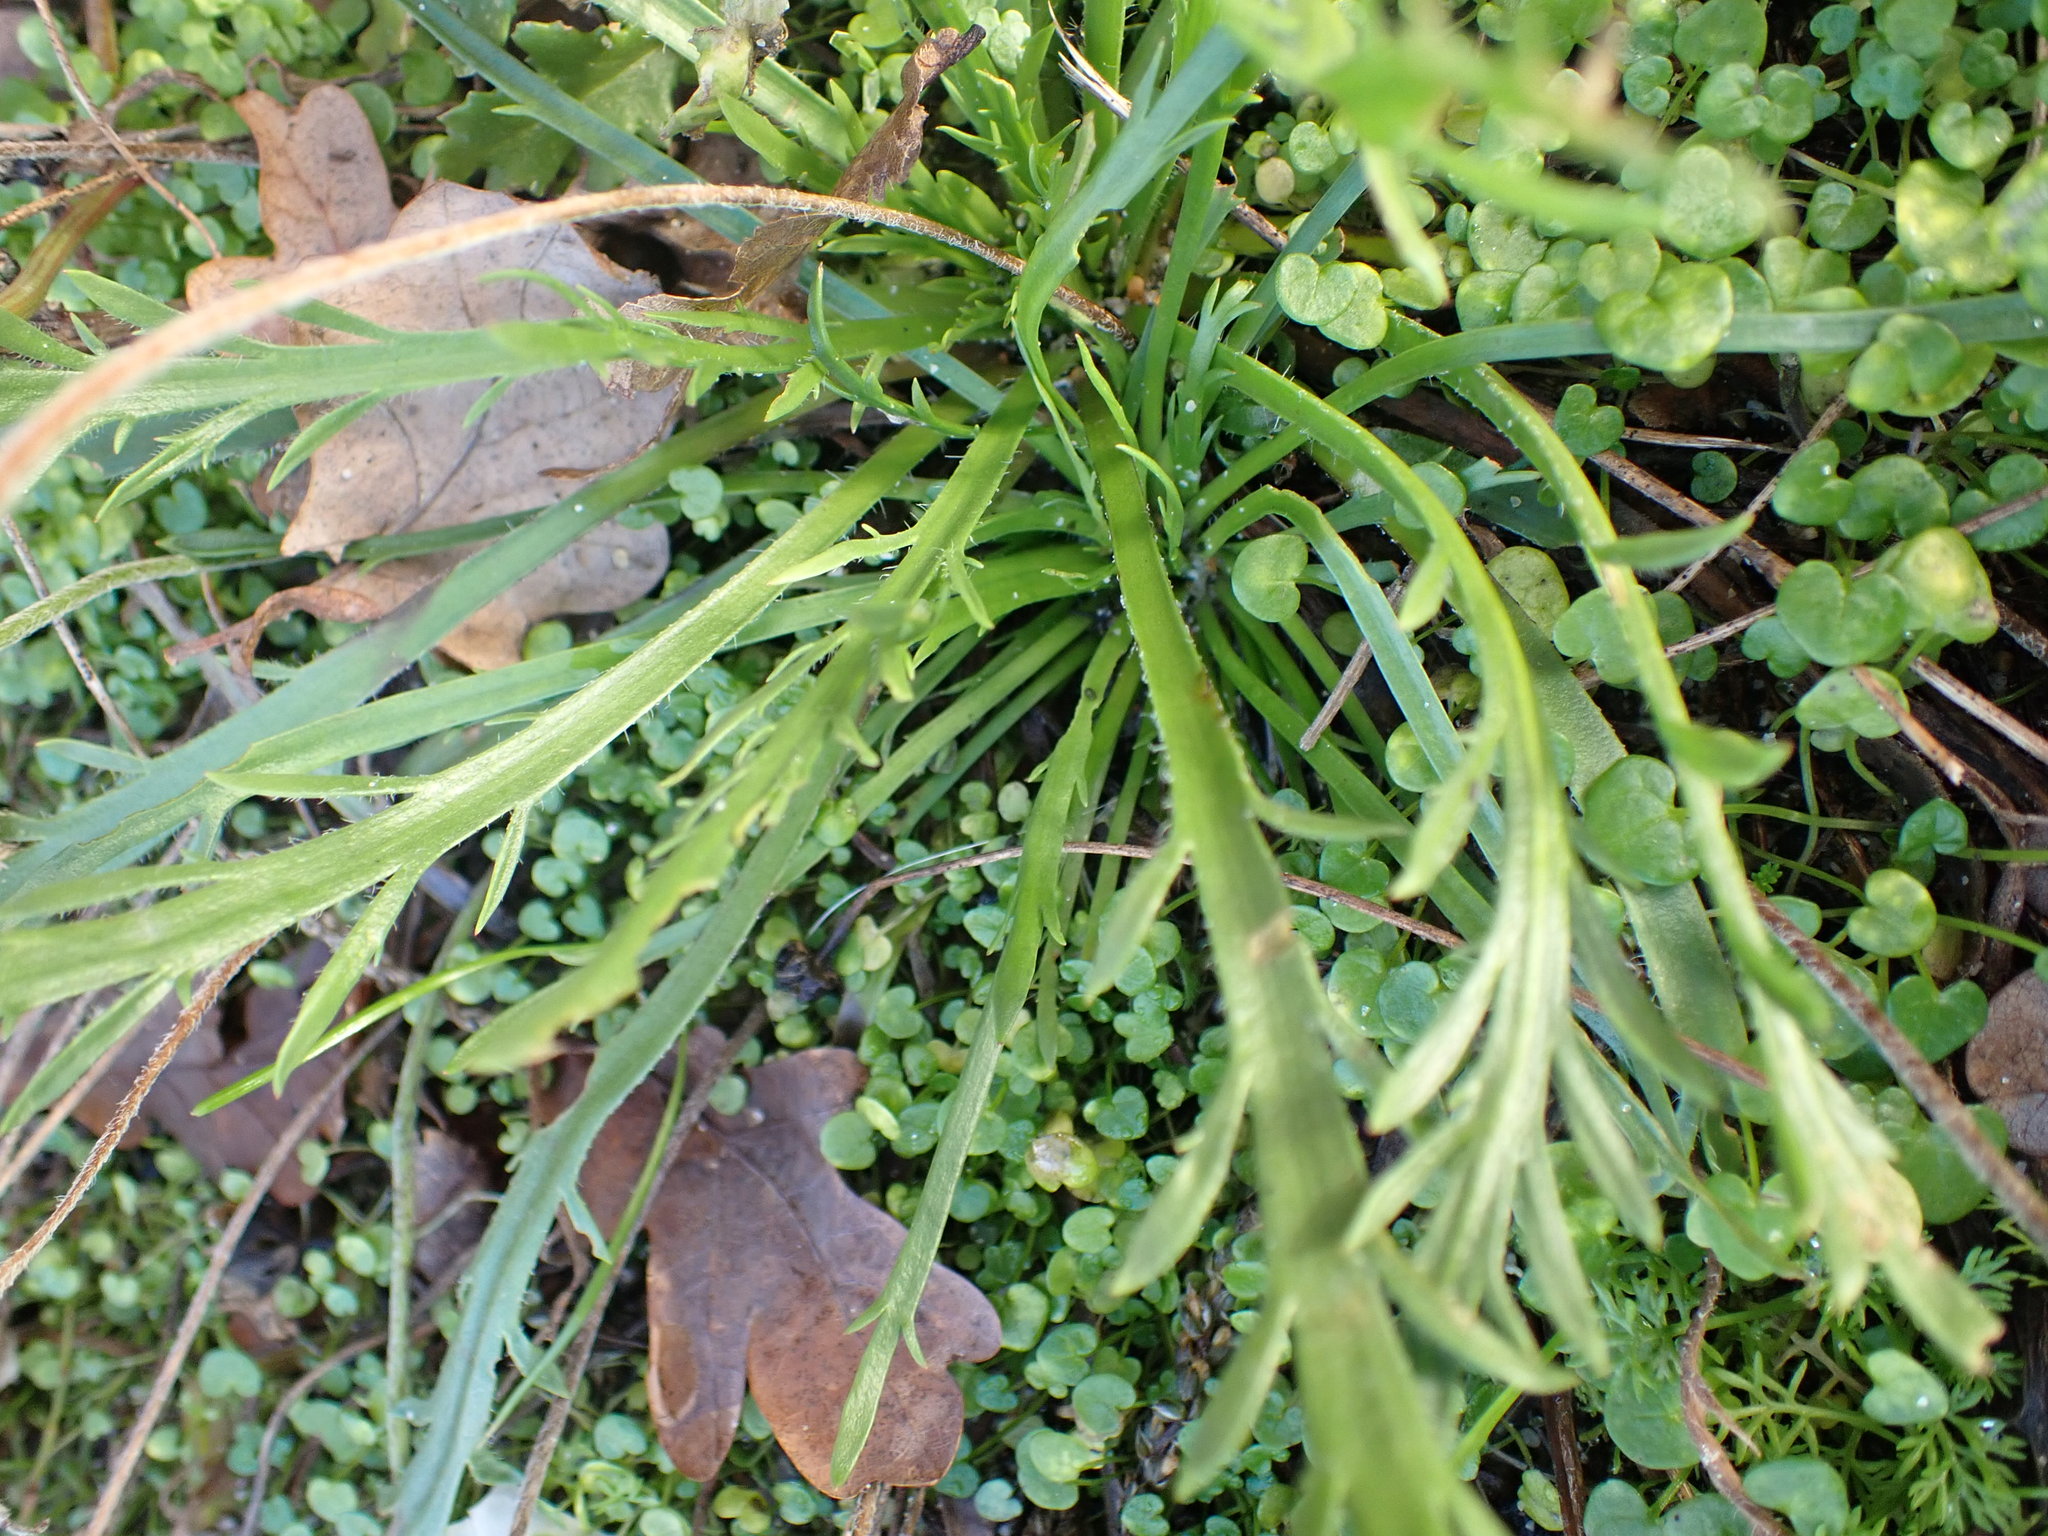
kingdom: Plantae
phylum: Tracheophyta
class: Magnoliopsida
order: Lamiales
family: Plantaginaceae
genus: Plantago
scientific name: Plantago coronopus
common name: Buck's-horn plantain
